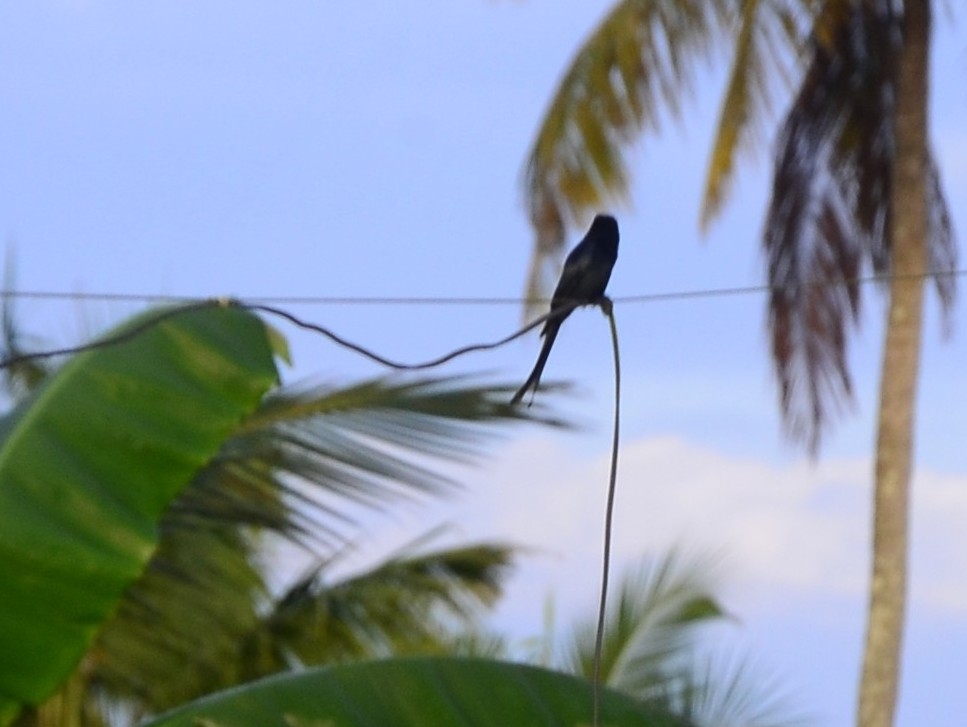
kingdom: Animalia
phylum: Chordata
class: Aves
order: Passeriformes
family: Dicruridae
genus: Dicrurus
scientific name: Dicrurus macrocercus
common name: Black drongo
